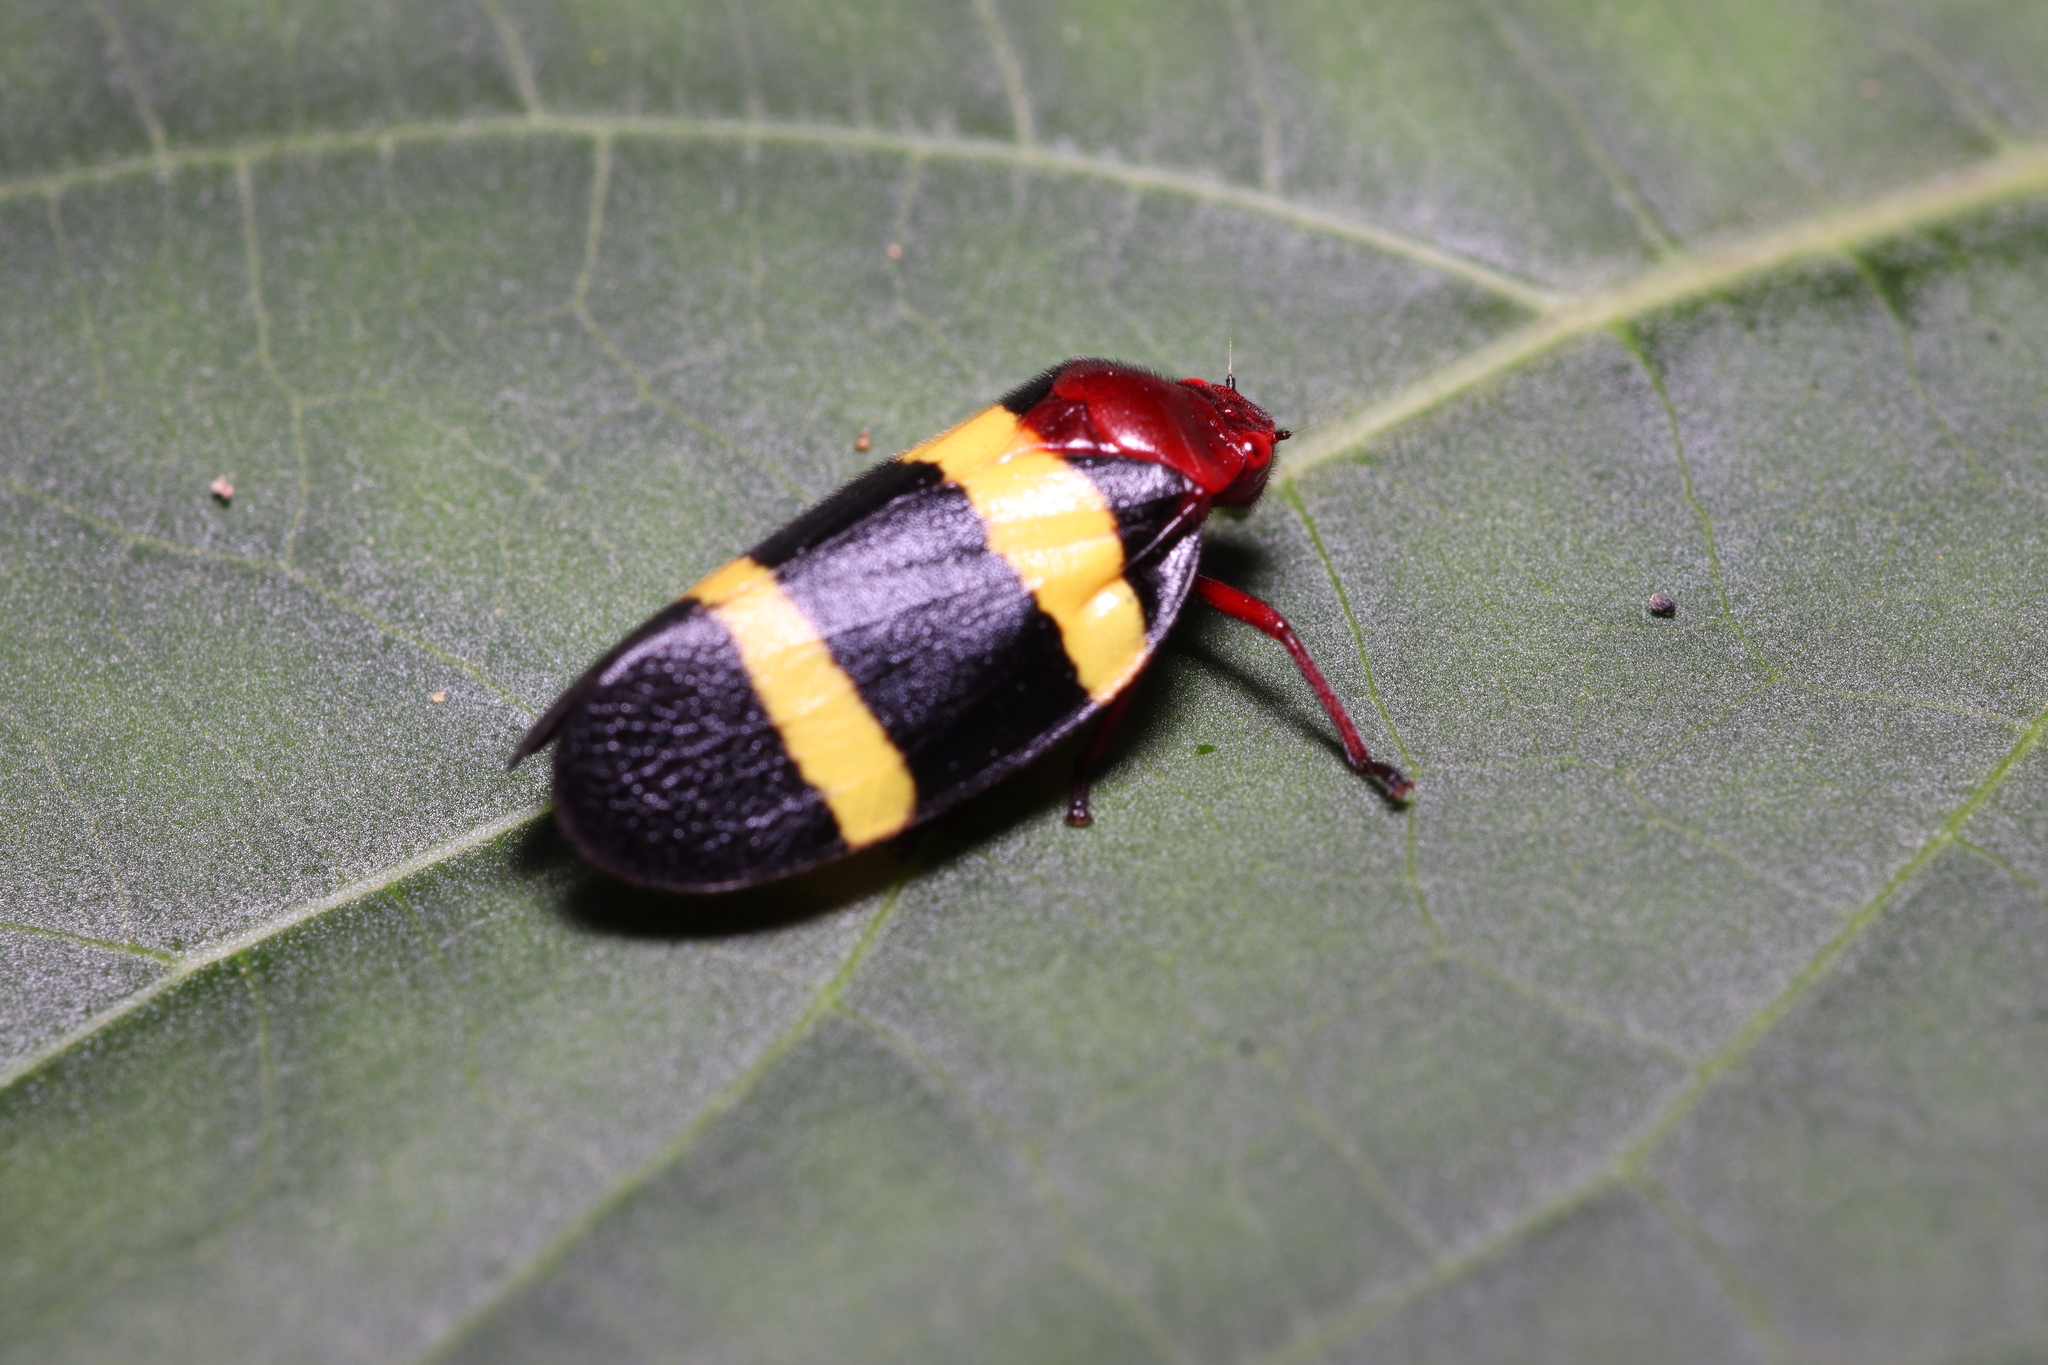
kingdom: Animalia
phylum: Arthropoda
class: Insecta
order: Hemiptera
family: Cercopidae
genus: Sphenorhina
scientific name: Sphenorhina rubra
